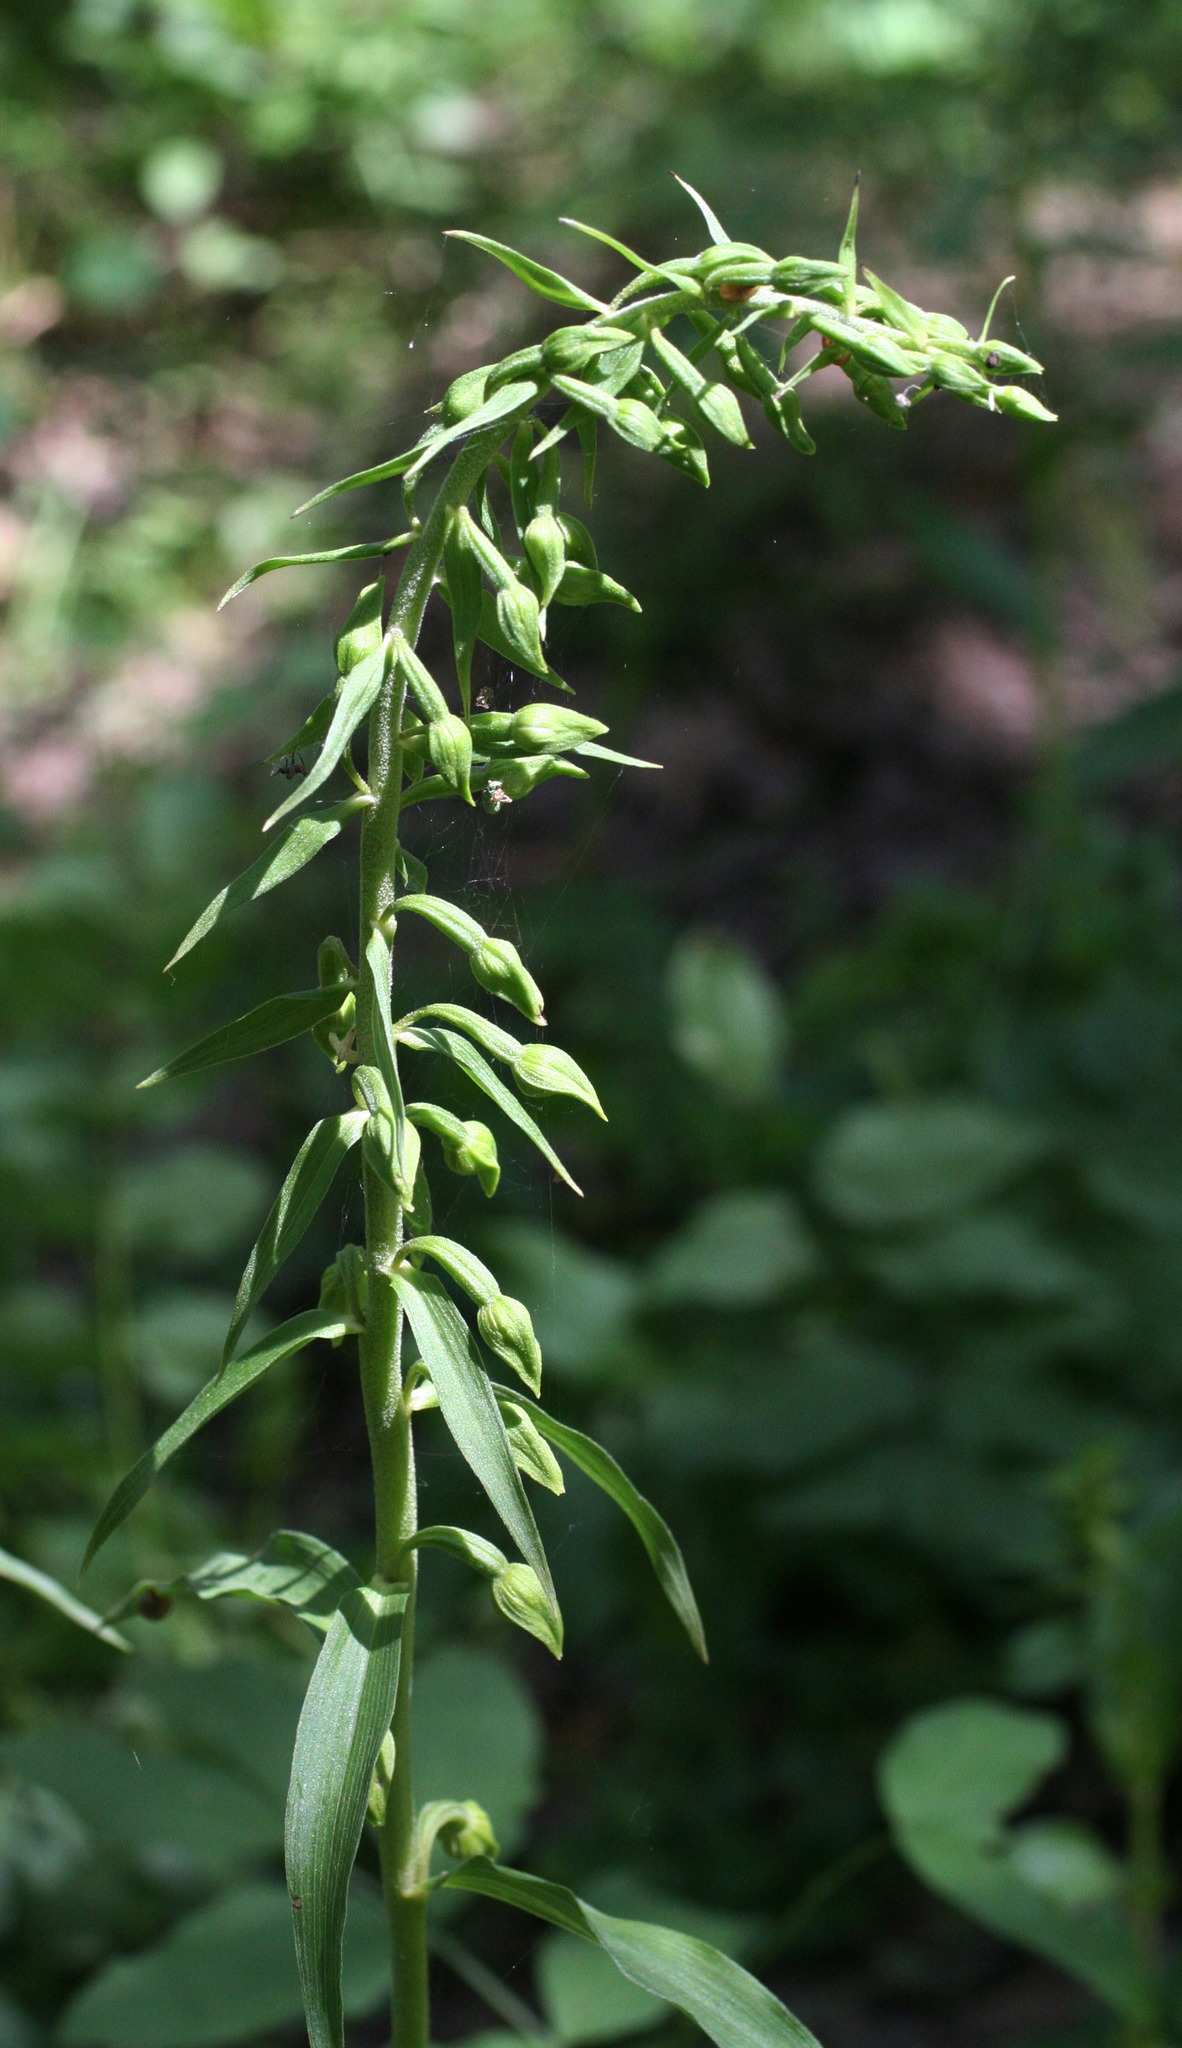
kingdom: Plantae
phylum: Tracheophyta
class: Liliopsida
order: Asparagales
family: Orchidaceae
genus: Epipactis
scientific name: Epipactis helleborine
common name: Broad-leaved helleborine
